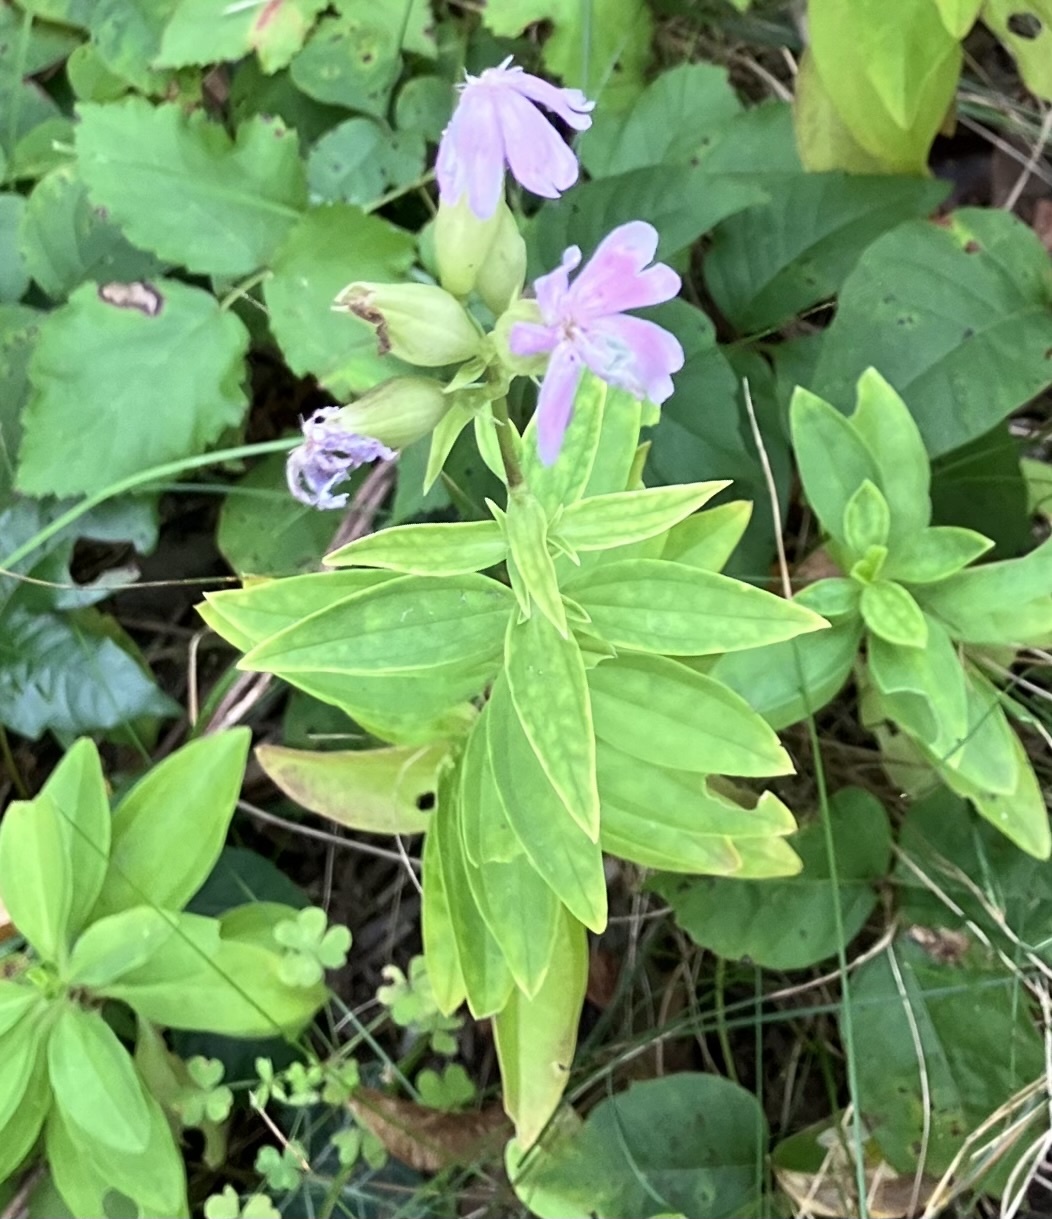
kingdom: Plantae
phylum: Tracheophyta
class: Magnoliopsida
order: Caryophyllales
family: Caryophyllaceae
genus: Saponaria
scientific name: Saponaria officinalis
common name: Soapwort
